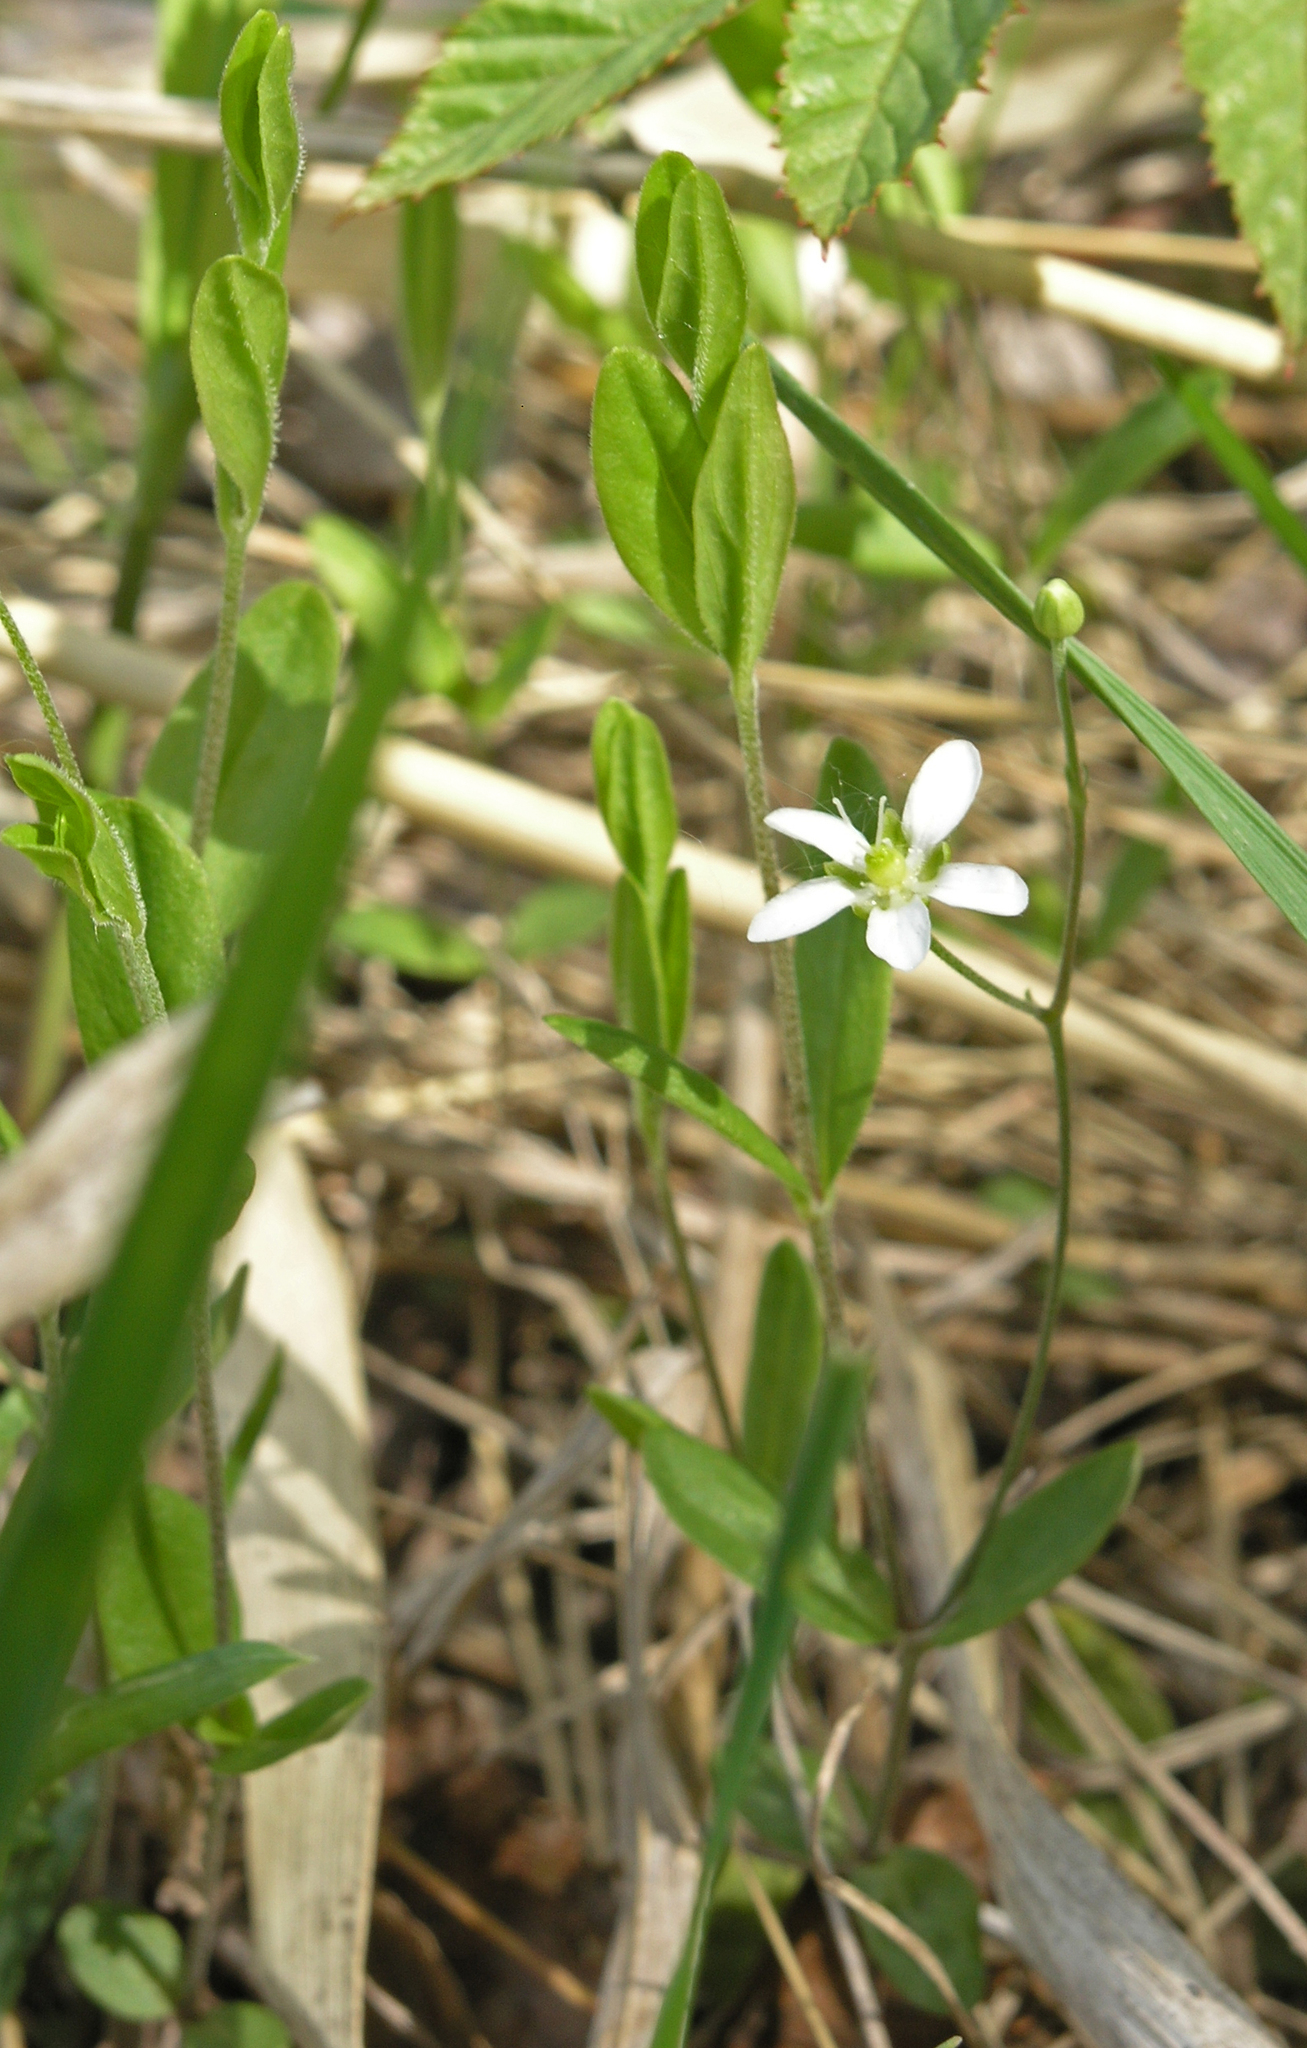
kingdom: Plantae
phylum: Tracheophyta
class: Magnoliopsida
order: Caryophyllales
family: Caryophyllaceae
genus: Moehringia
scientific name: Moehringia lateriflora
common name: Blunt-leaved sandwort
